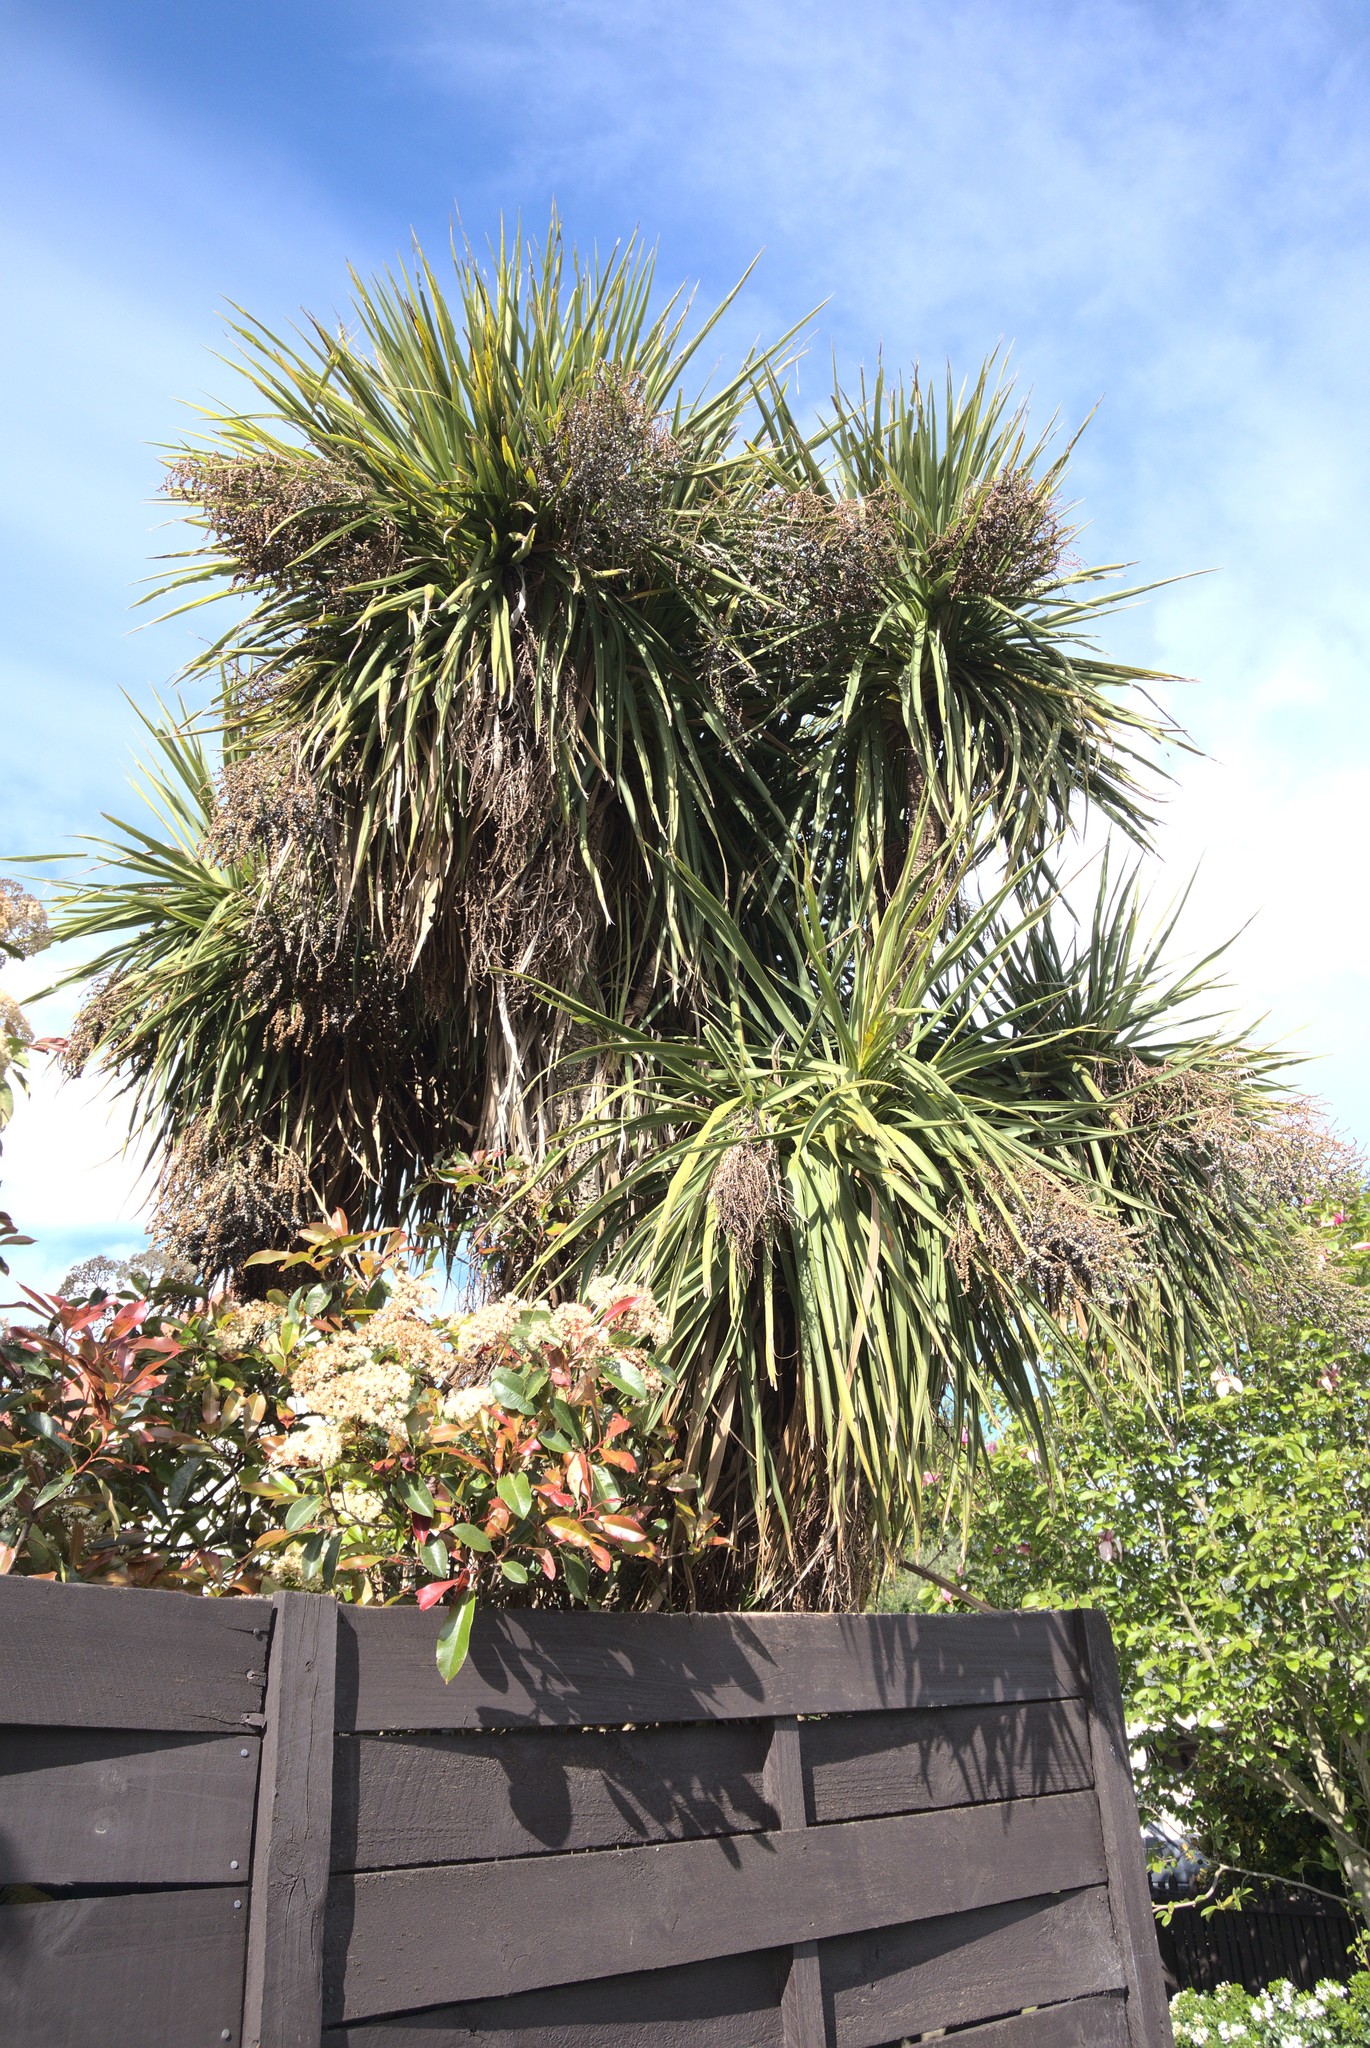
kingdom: Plantae
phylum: Tracheophyta
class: Liliopsida
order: Asparagales
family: Asparagaceae
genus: Cordyline
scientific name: Cordyline australis
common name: Cabbage-palm
